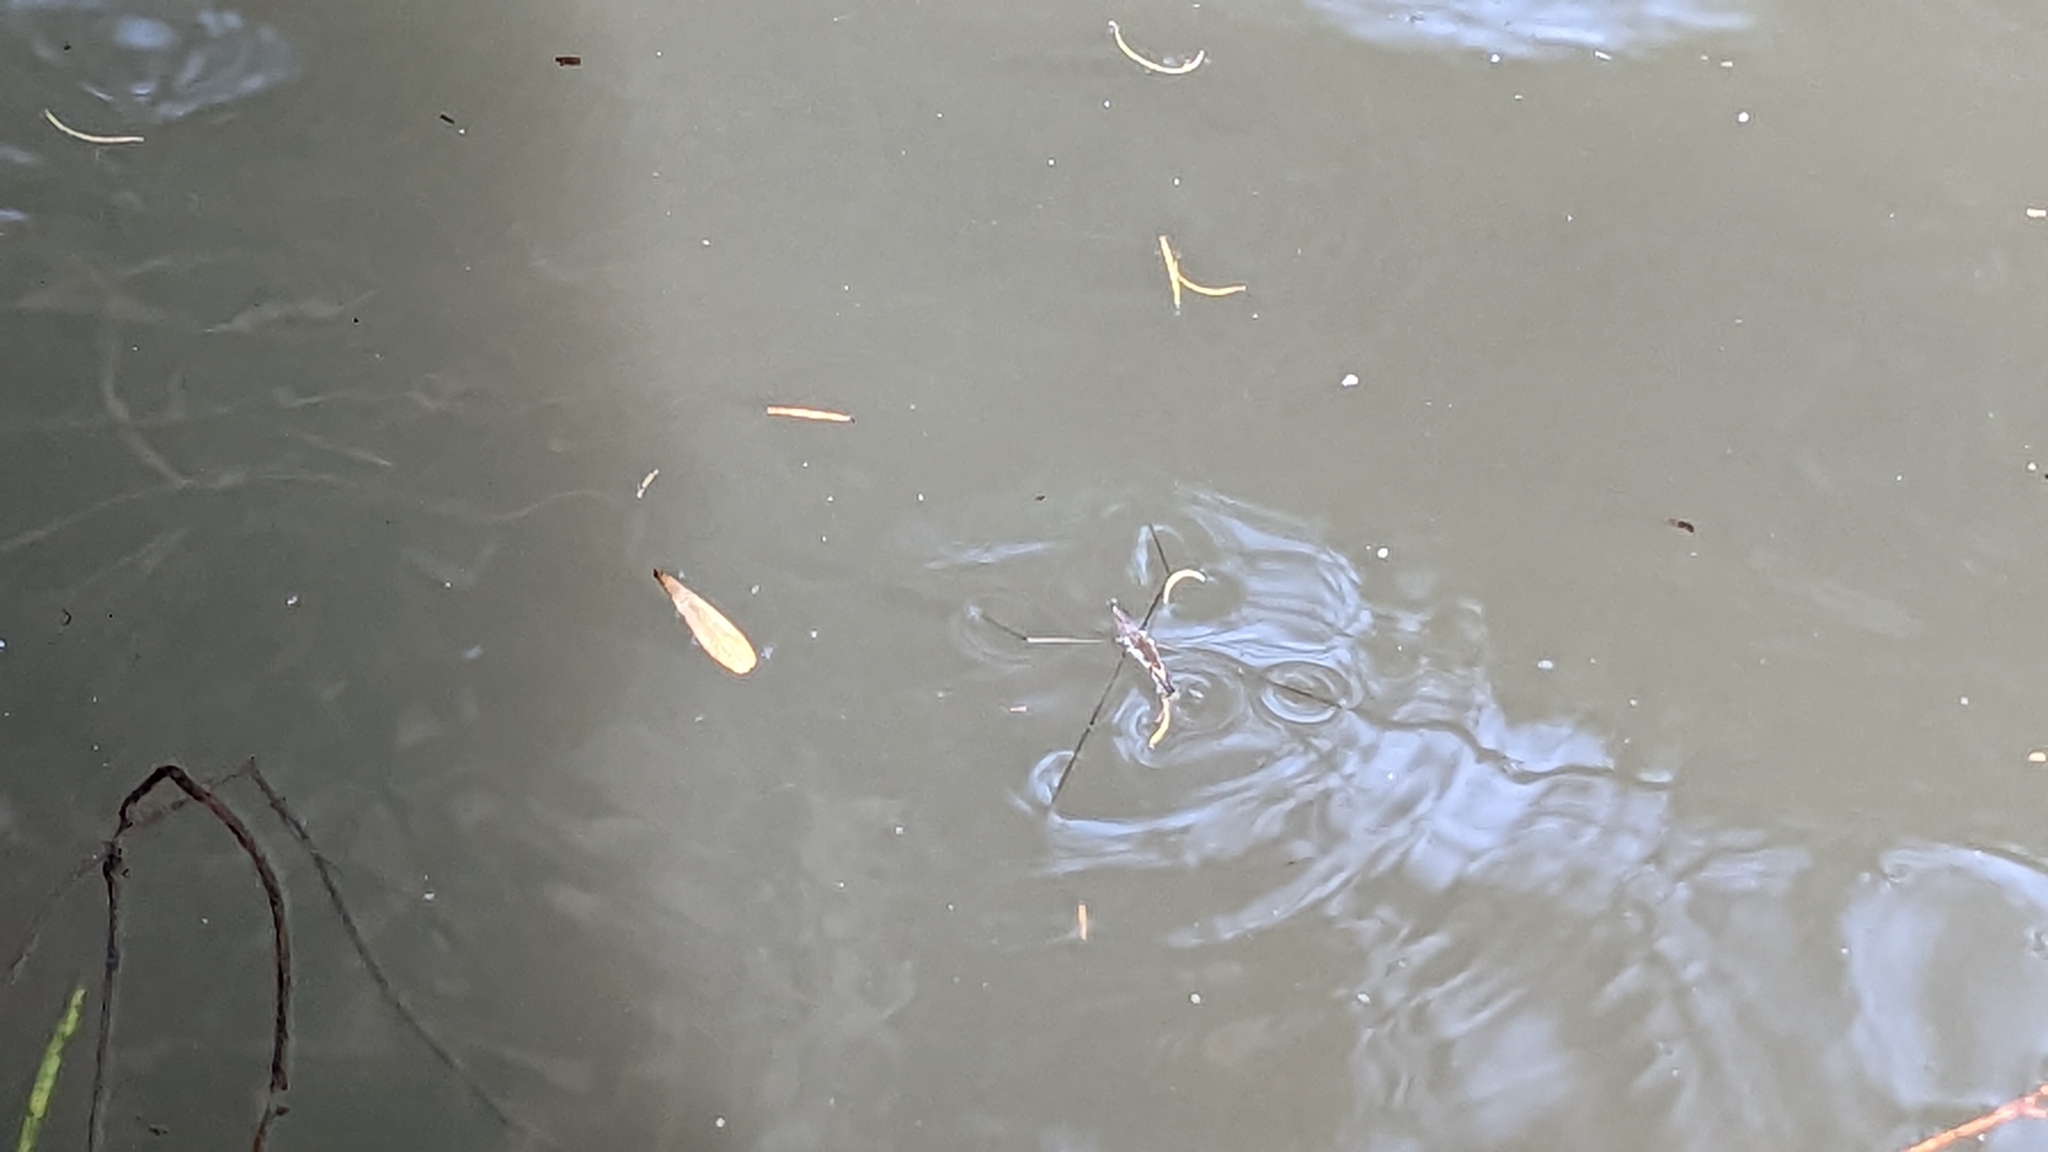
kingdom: Animalia
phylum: Arthropoda
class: Insecta
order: Hemiptera
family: Gerridae
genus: Aquarius
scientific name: Aquarius paludum
